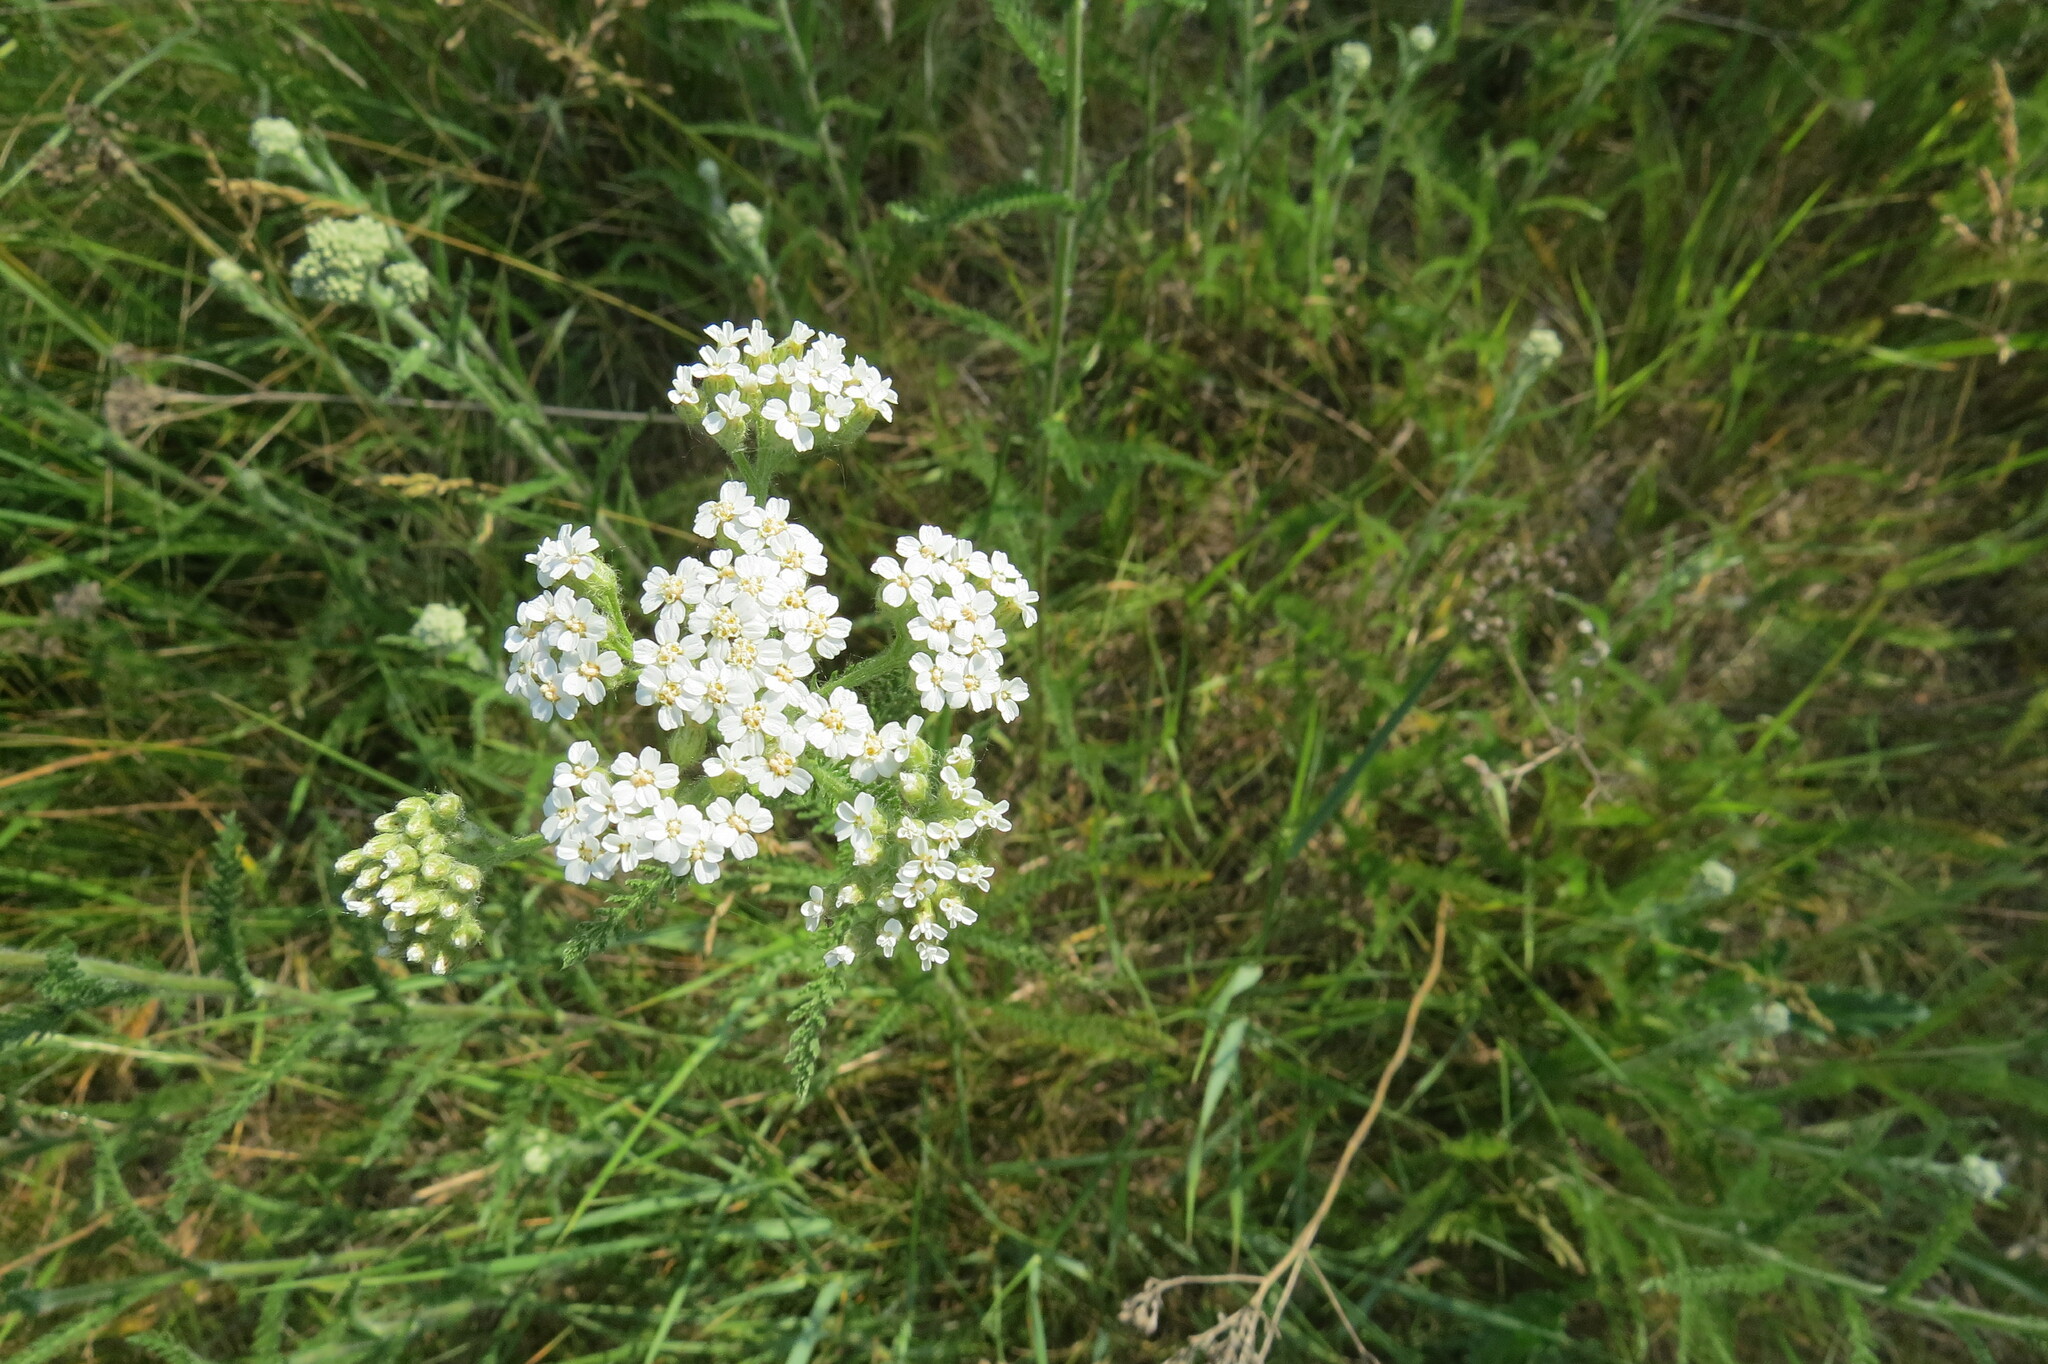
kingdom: Plantae
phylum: Tracheophyta
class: Magnoliopsida
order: Asterales
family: Asteraceae
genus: Achillea
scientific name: Achillea millefolium
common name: Yarrow
